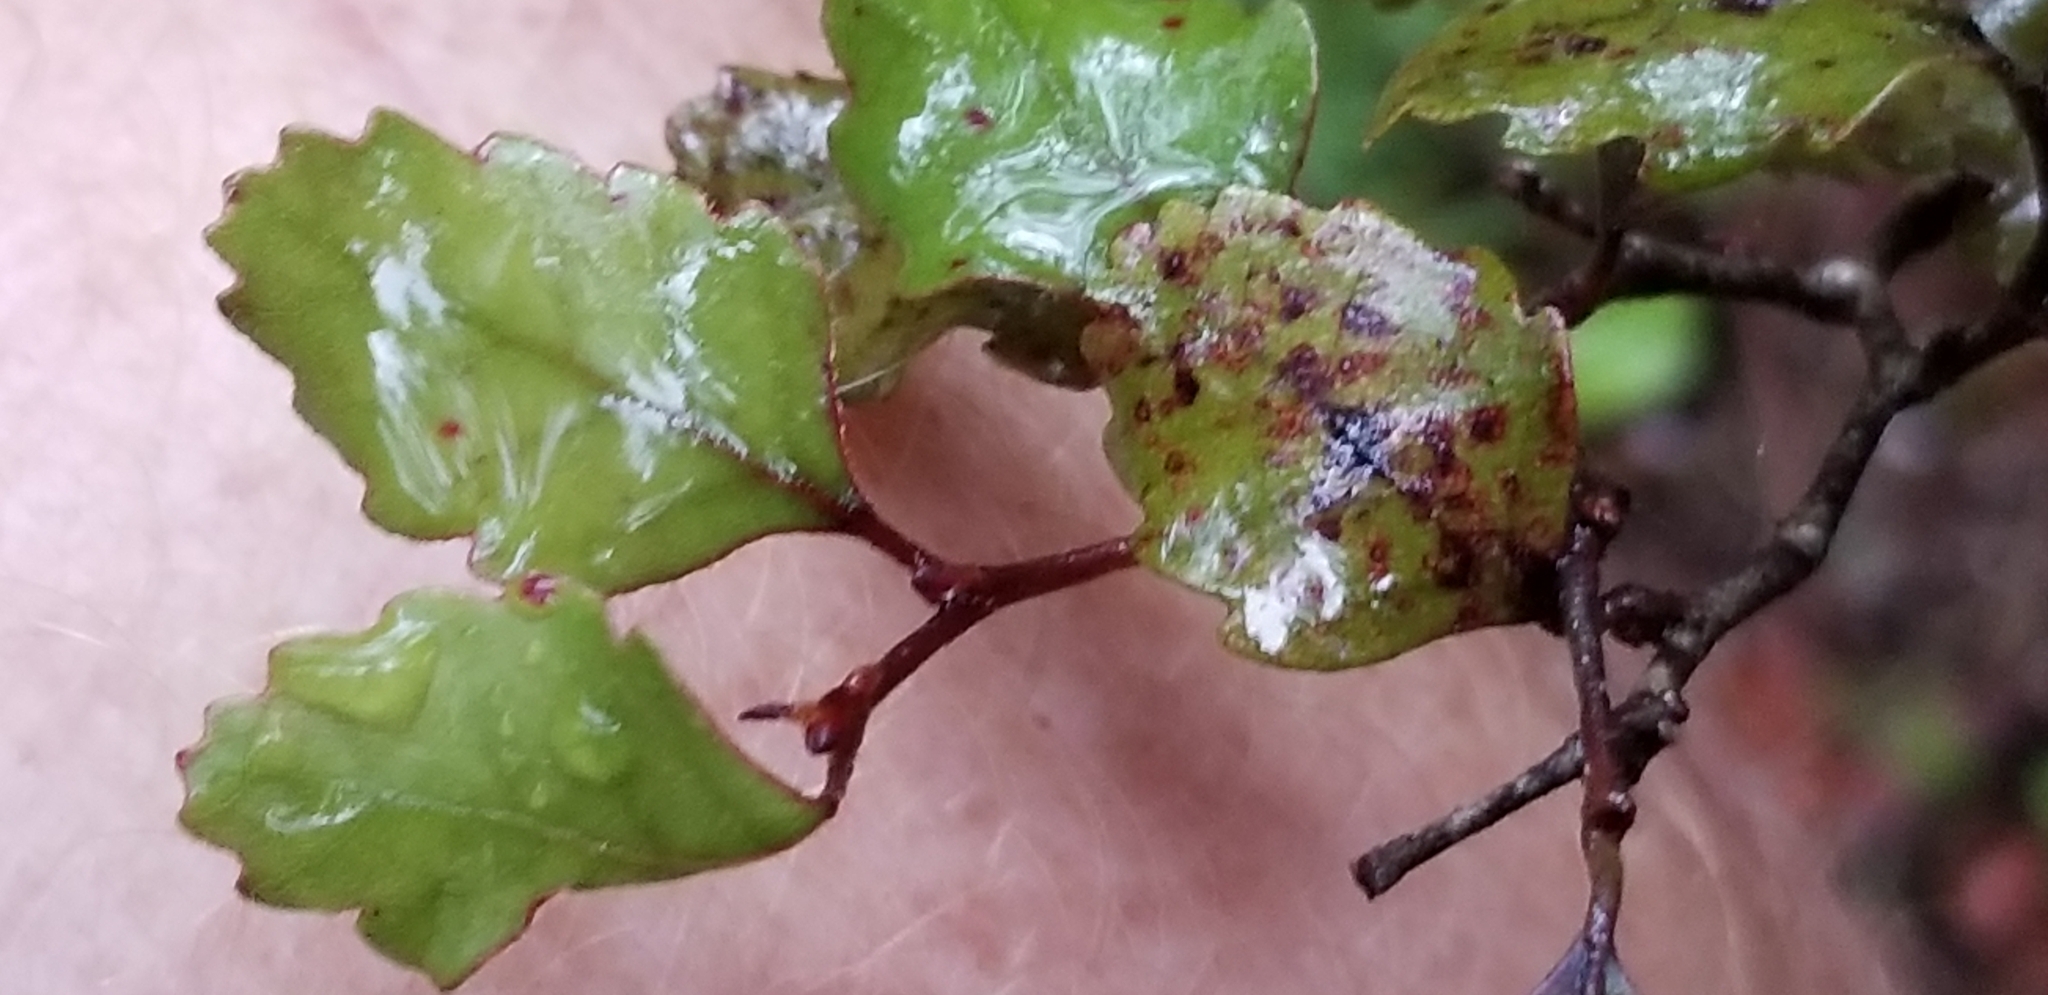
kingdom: Plantae
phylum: Tracheophyta
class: Magnoliopsida
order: Fagales
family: Nothofagaceae
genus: Nothofagus
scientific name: Nothofagus truncata
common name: Hard beech
